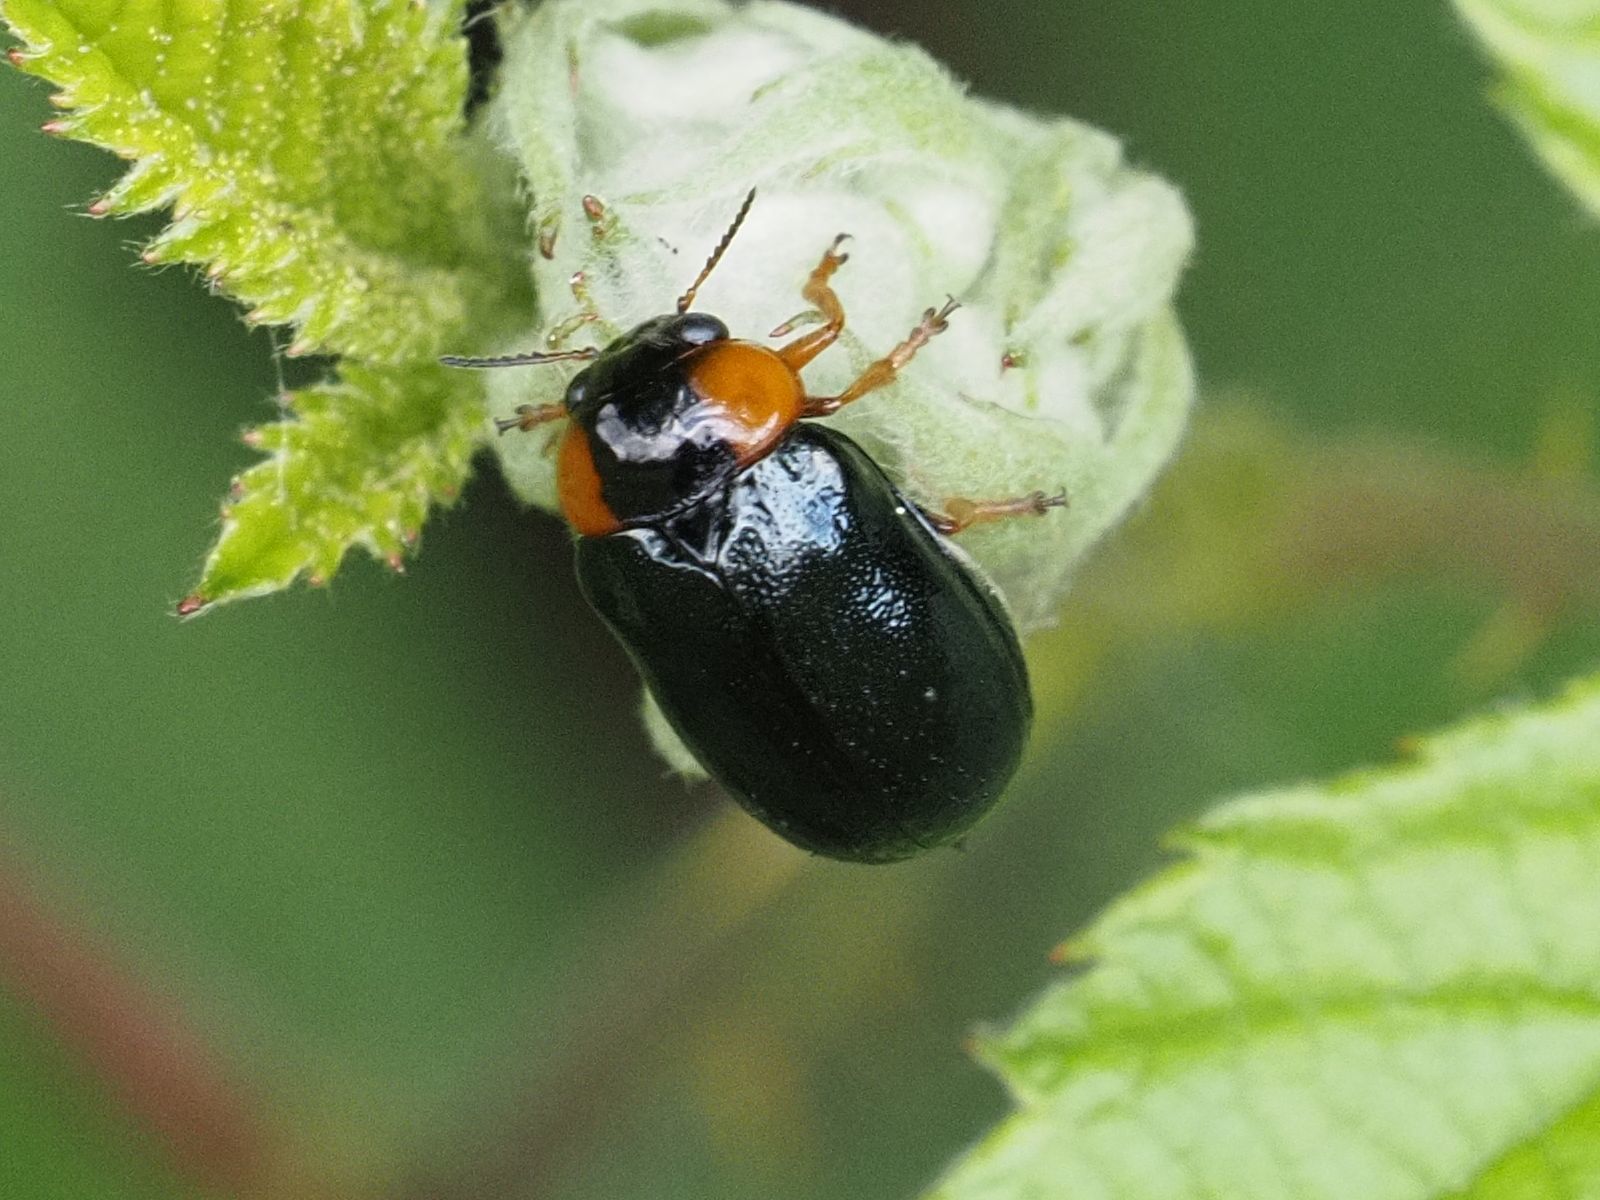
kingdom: Animalia
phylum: Arthropoda
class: Insecta
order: Coleoptera
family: Chrysomelidae
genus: Smaragdina
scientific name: Smaragdina aurita
